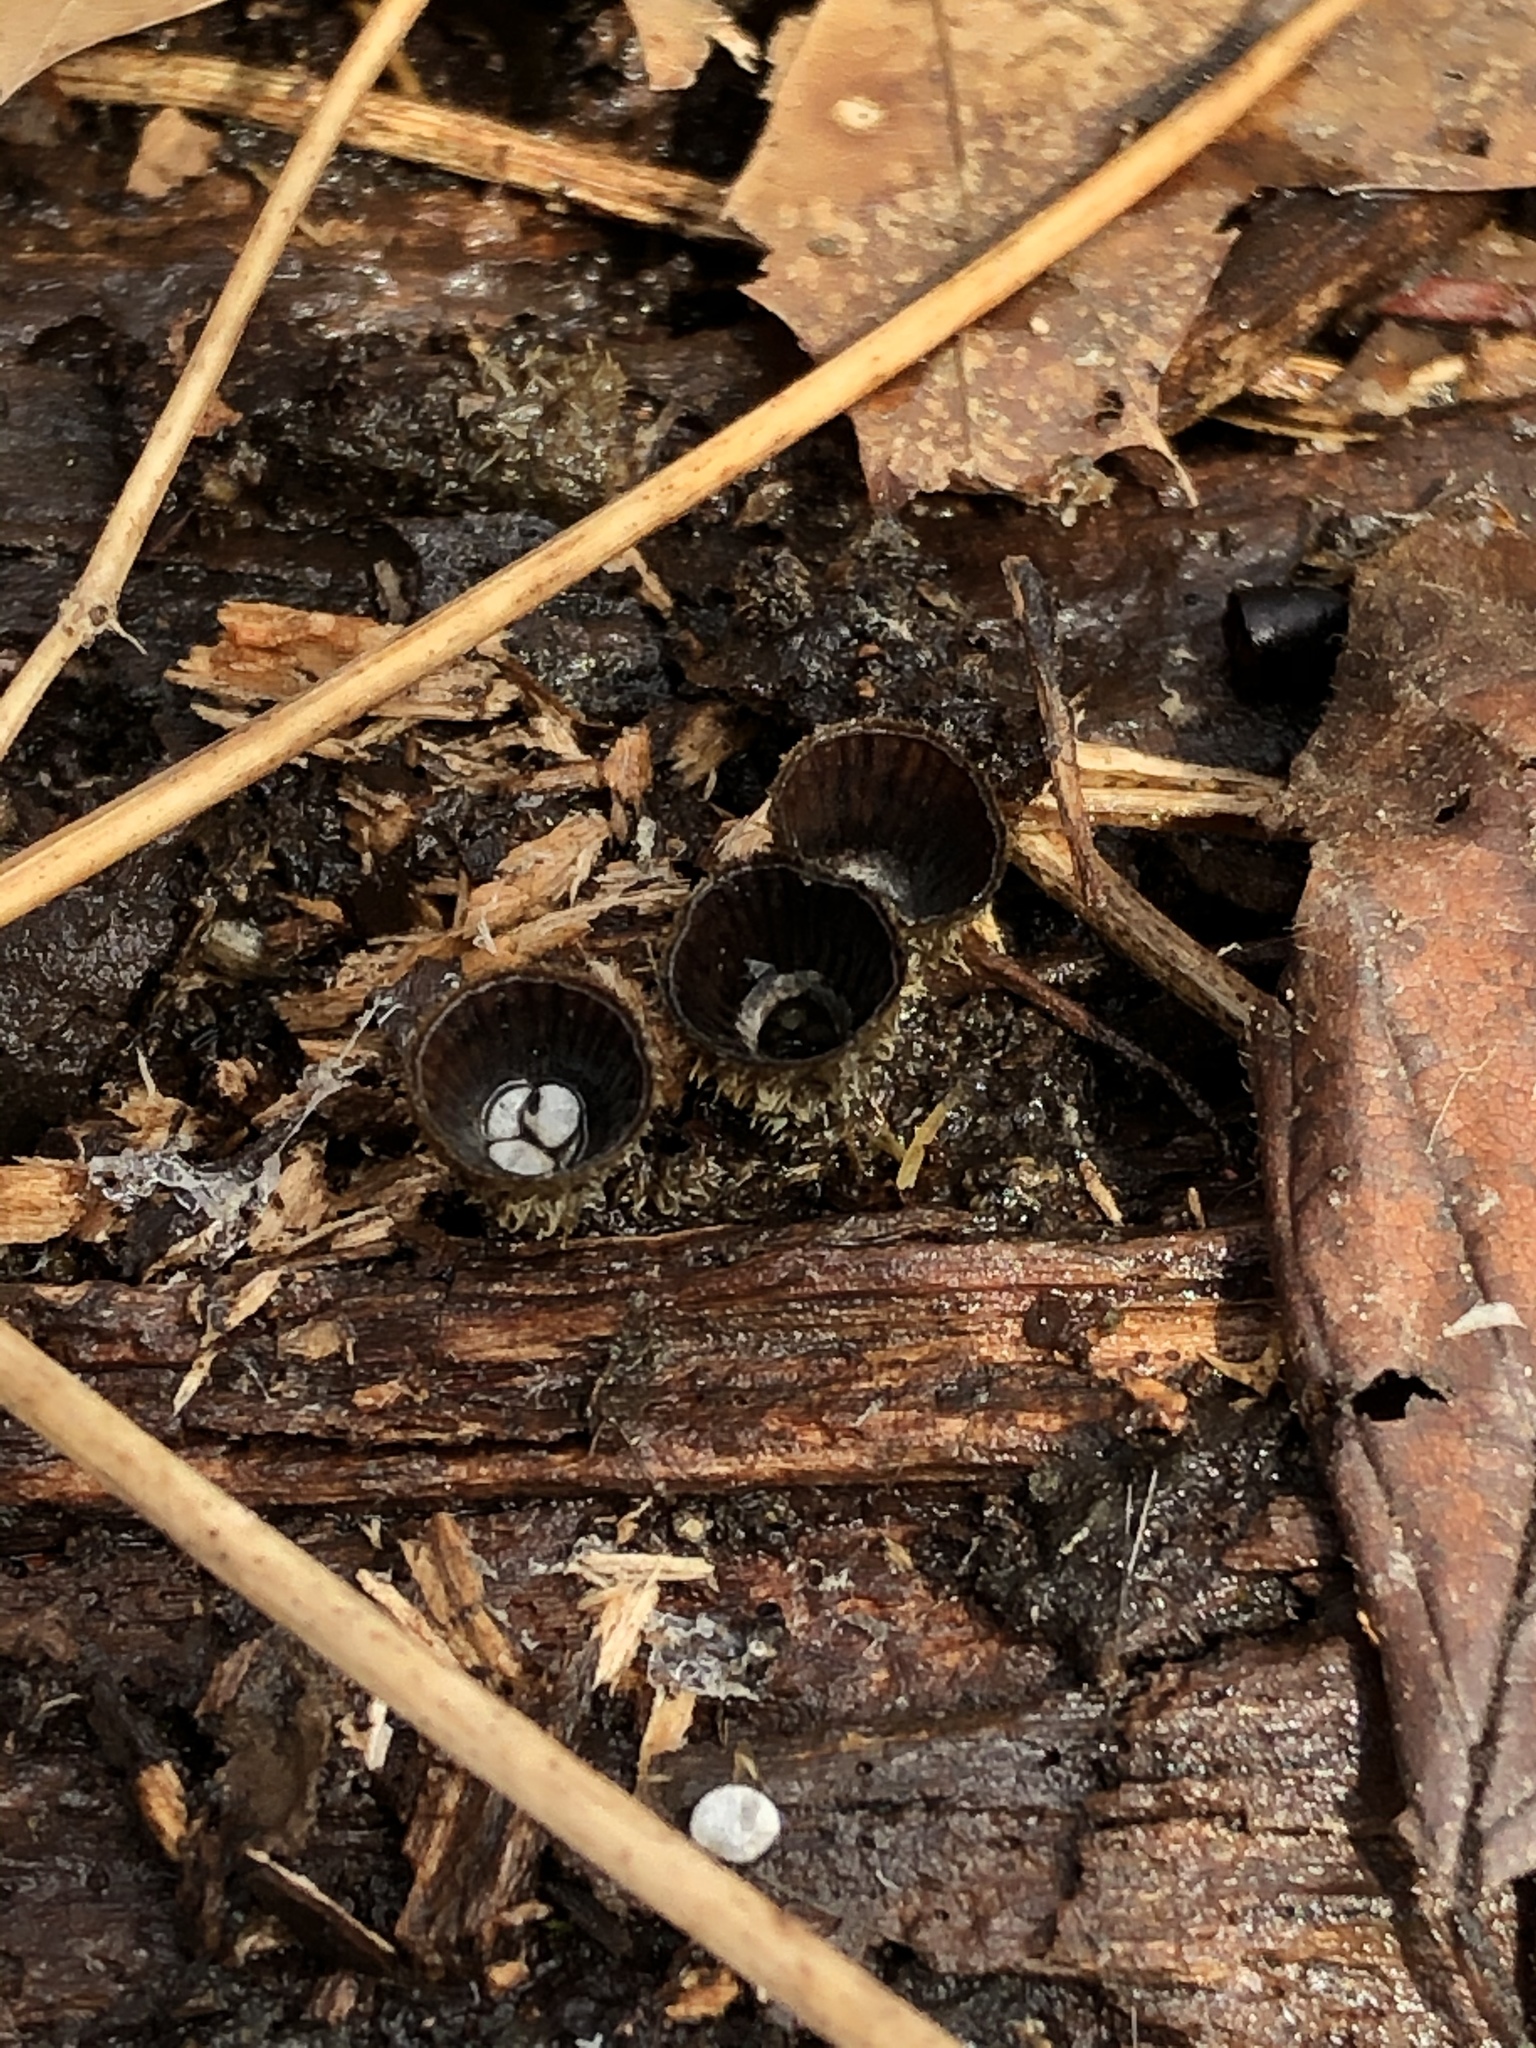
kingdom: Fungi
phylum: Basidiomycota
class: Agaricomycetes
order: Agaricales
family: Agaricaceae
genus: Cyathus
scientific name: Cyathus striatus
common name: Fluted bird's nest
